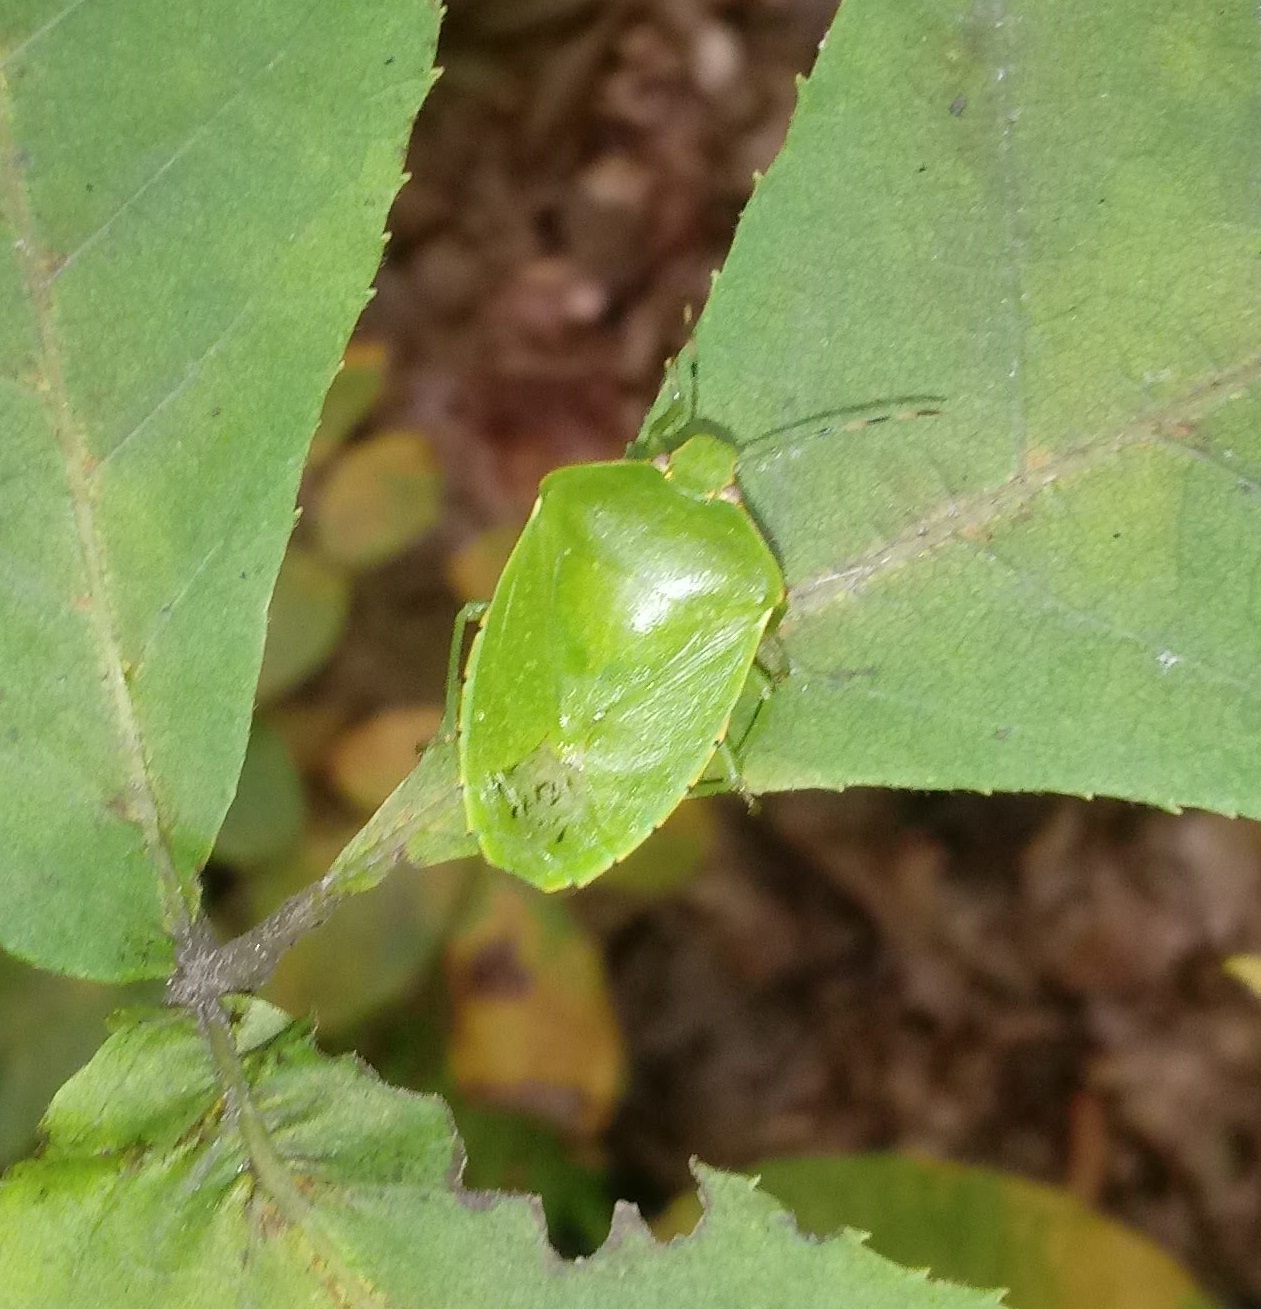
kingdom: Animalia
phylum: Arthropoda
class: Insecta
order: Hemiptera
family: Pentatomidae
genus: Chinavia
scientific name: Chinavia hilaris
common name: Green stink bug
